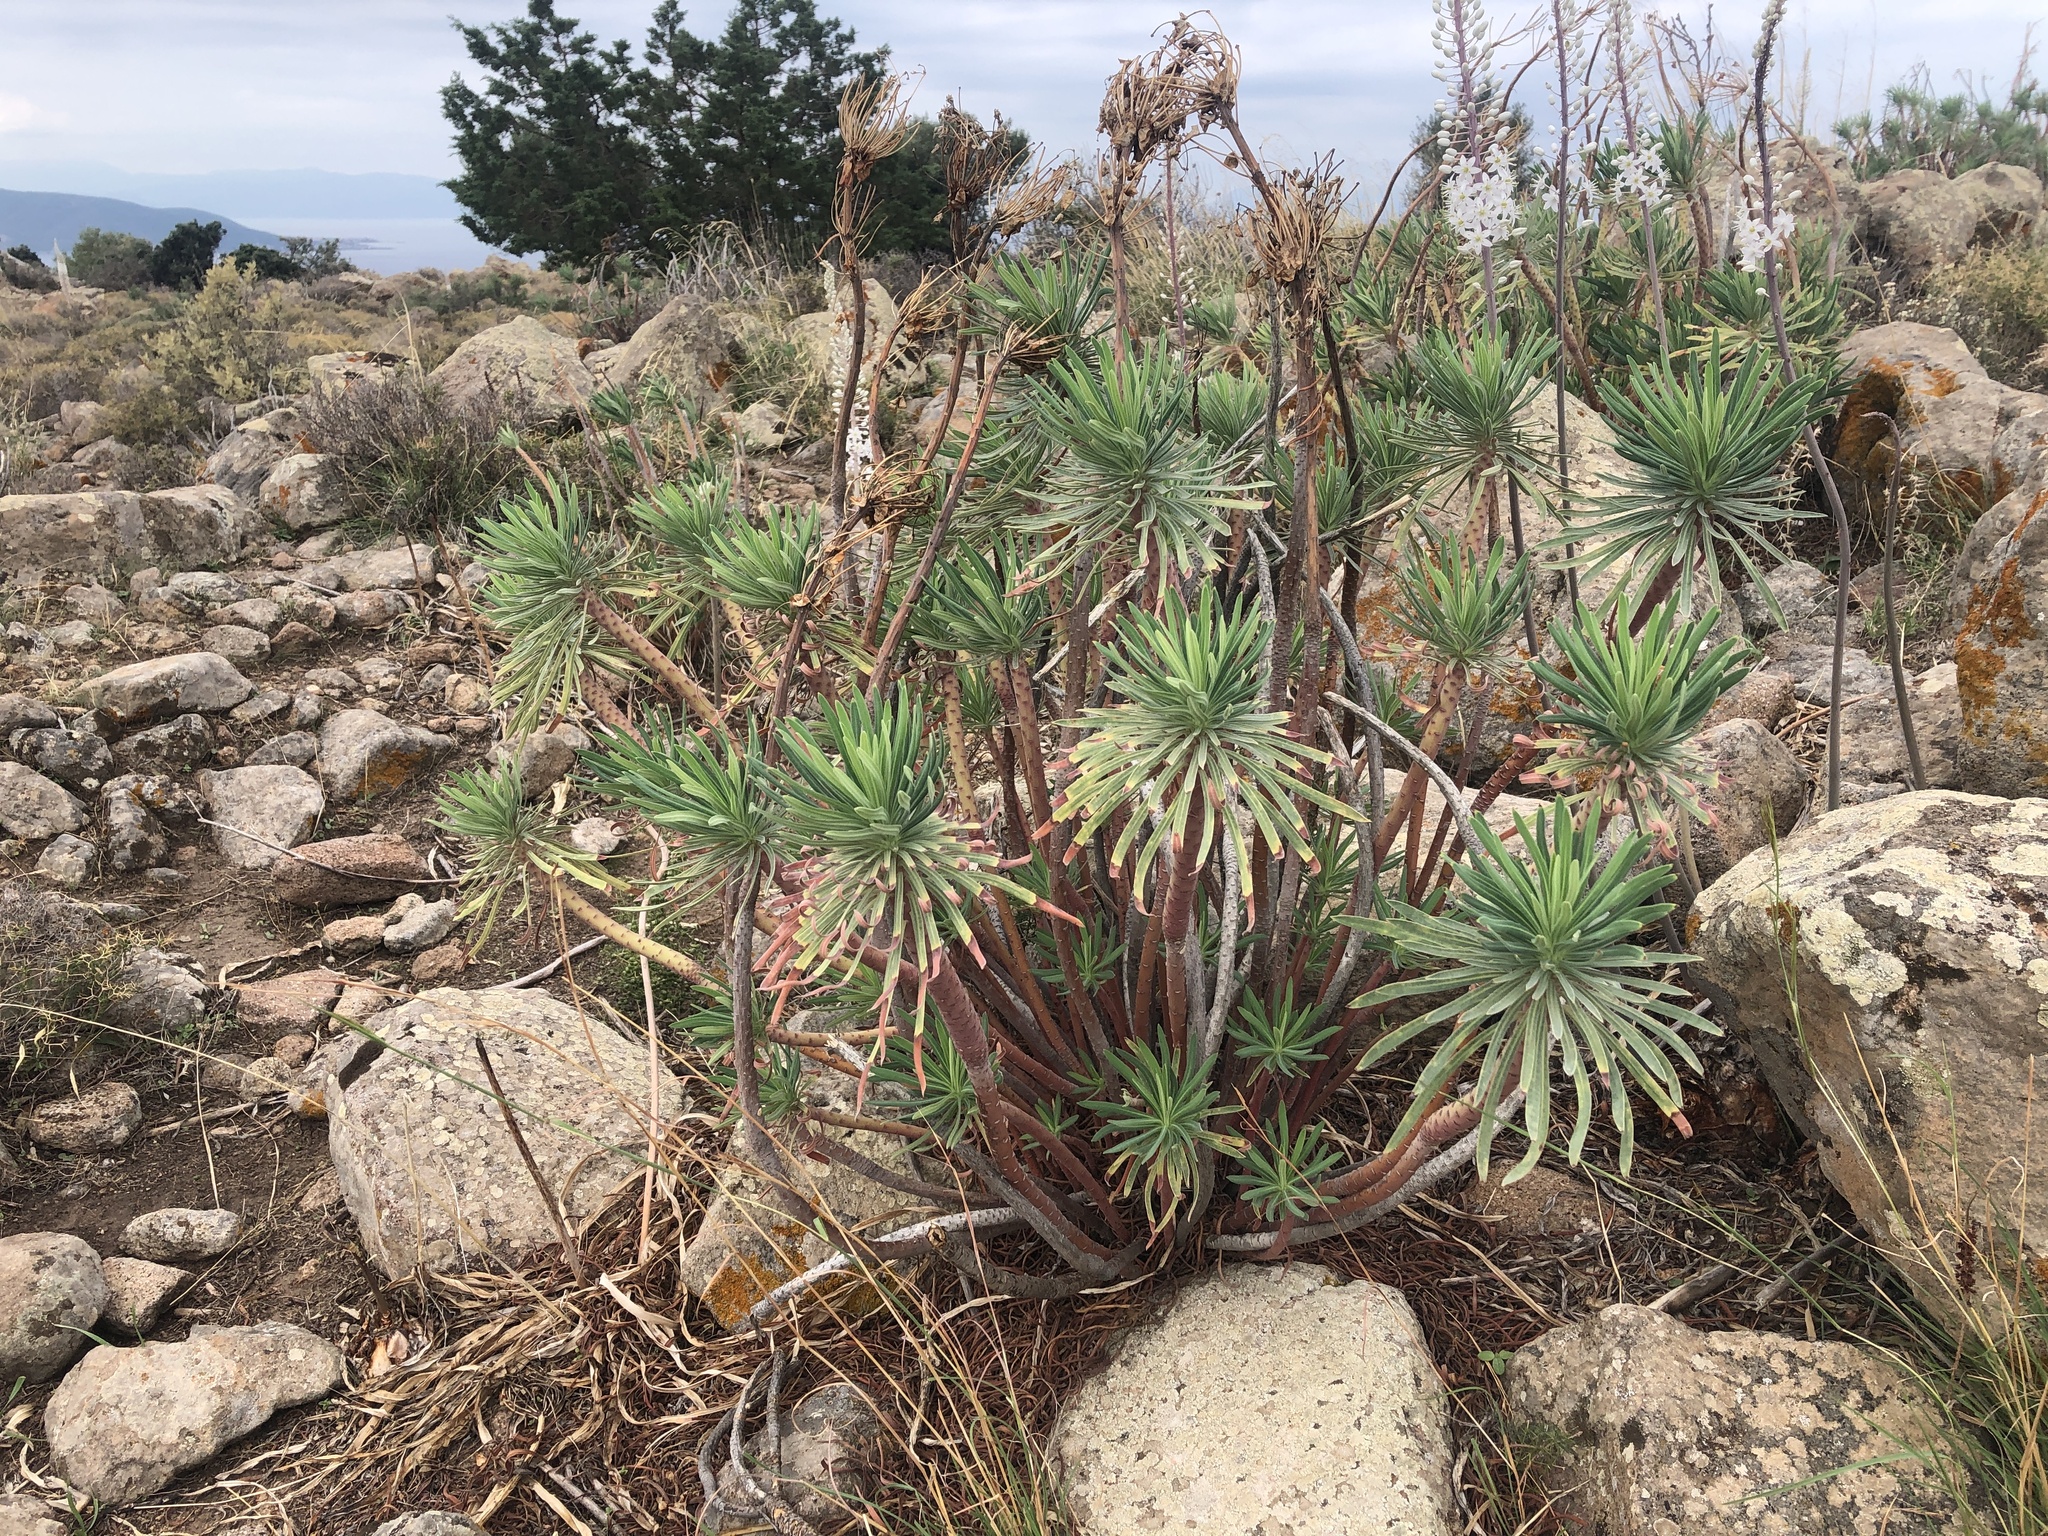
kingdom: Plantae
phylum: Tracheophyta
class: Magnoliopsida
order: Malpighiales
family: Euphorbiaceae
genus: Euphorbia
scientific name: Euphorbia characias
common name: Mediterranean spurge
